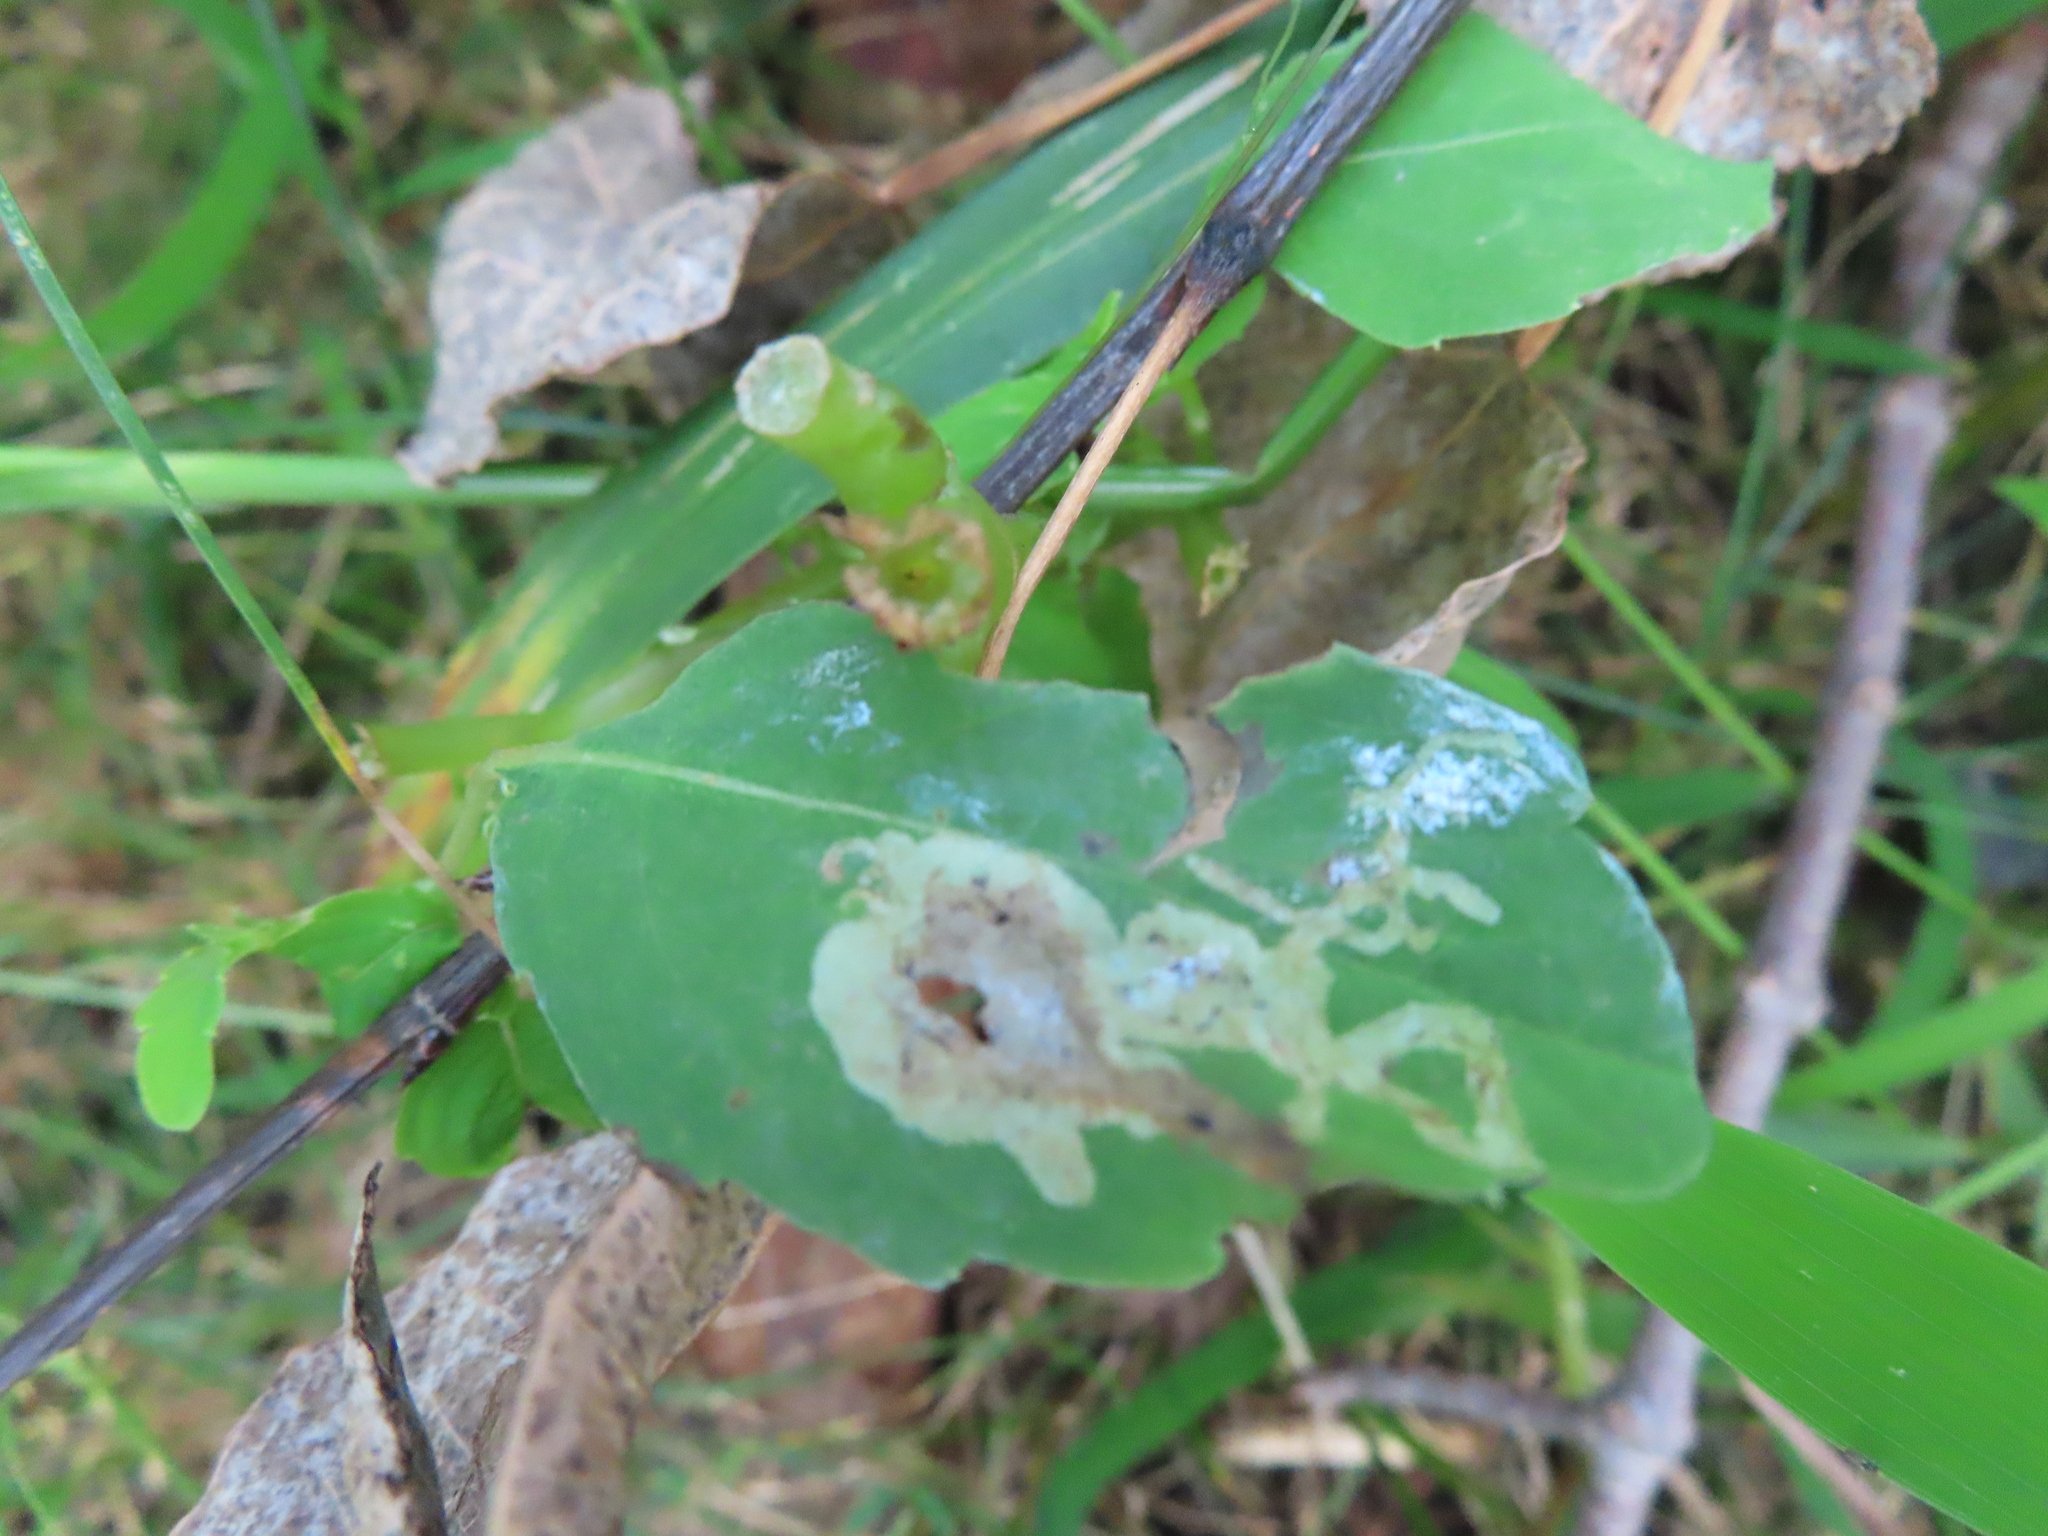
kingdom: Animalia
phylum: Arthropoda
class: Insecta
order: Diptera
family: Agromyzidae
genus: Phytoliriomyza
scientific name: Phytoliriomyza melampyga
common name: Jewelweed leaf-miner fly
